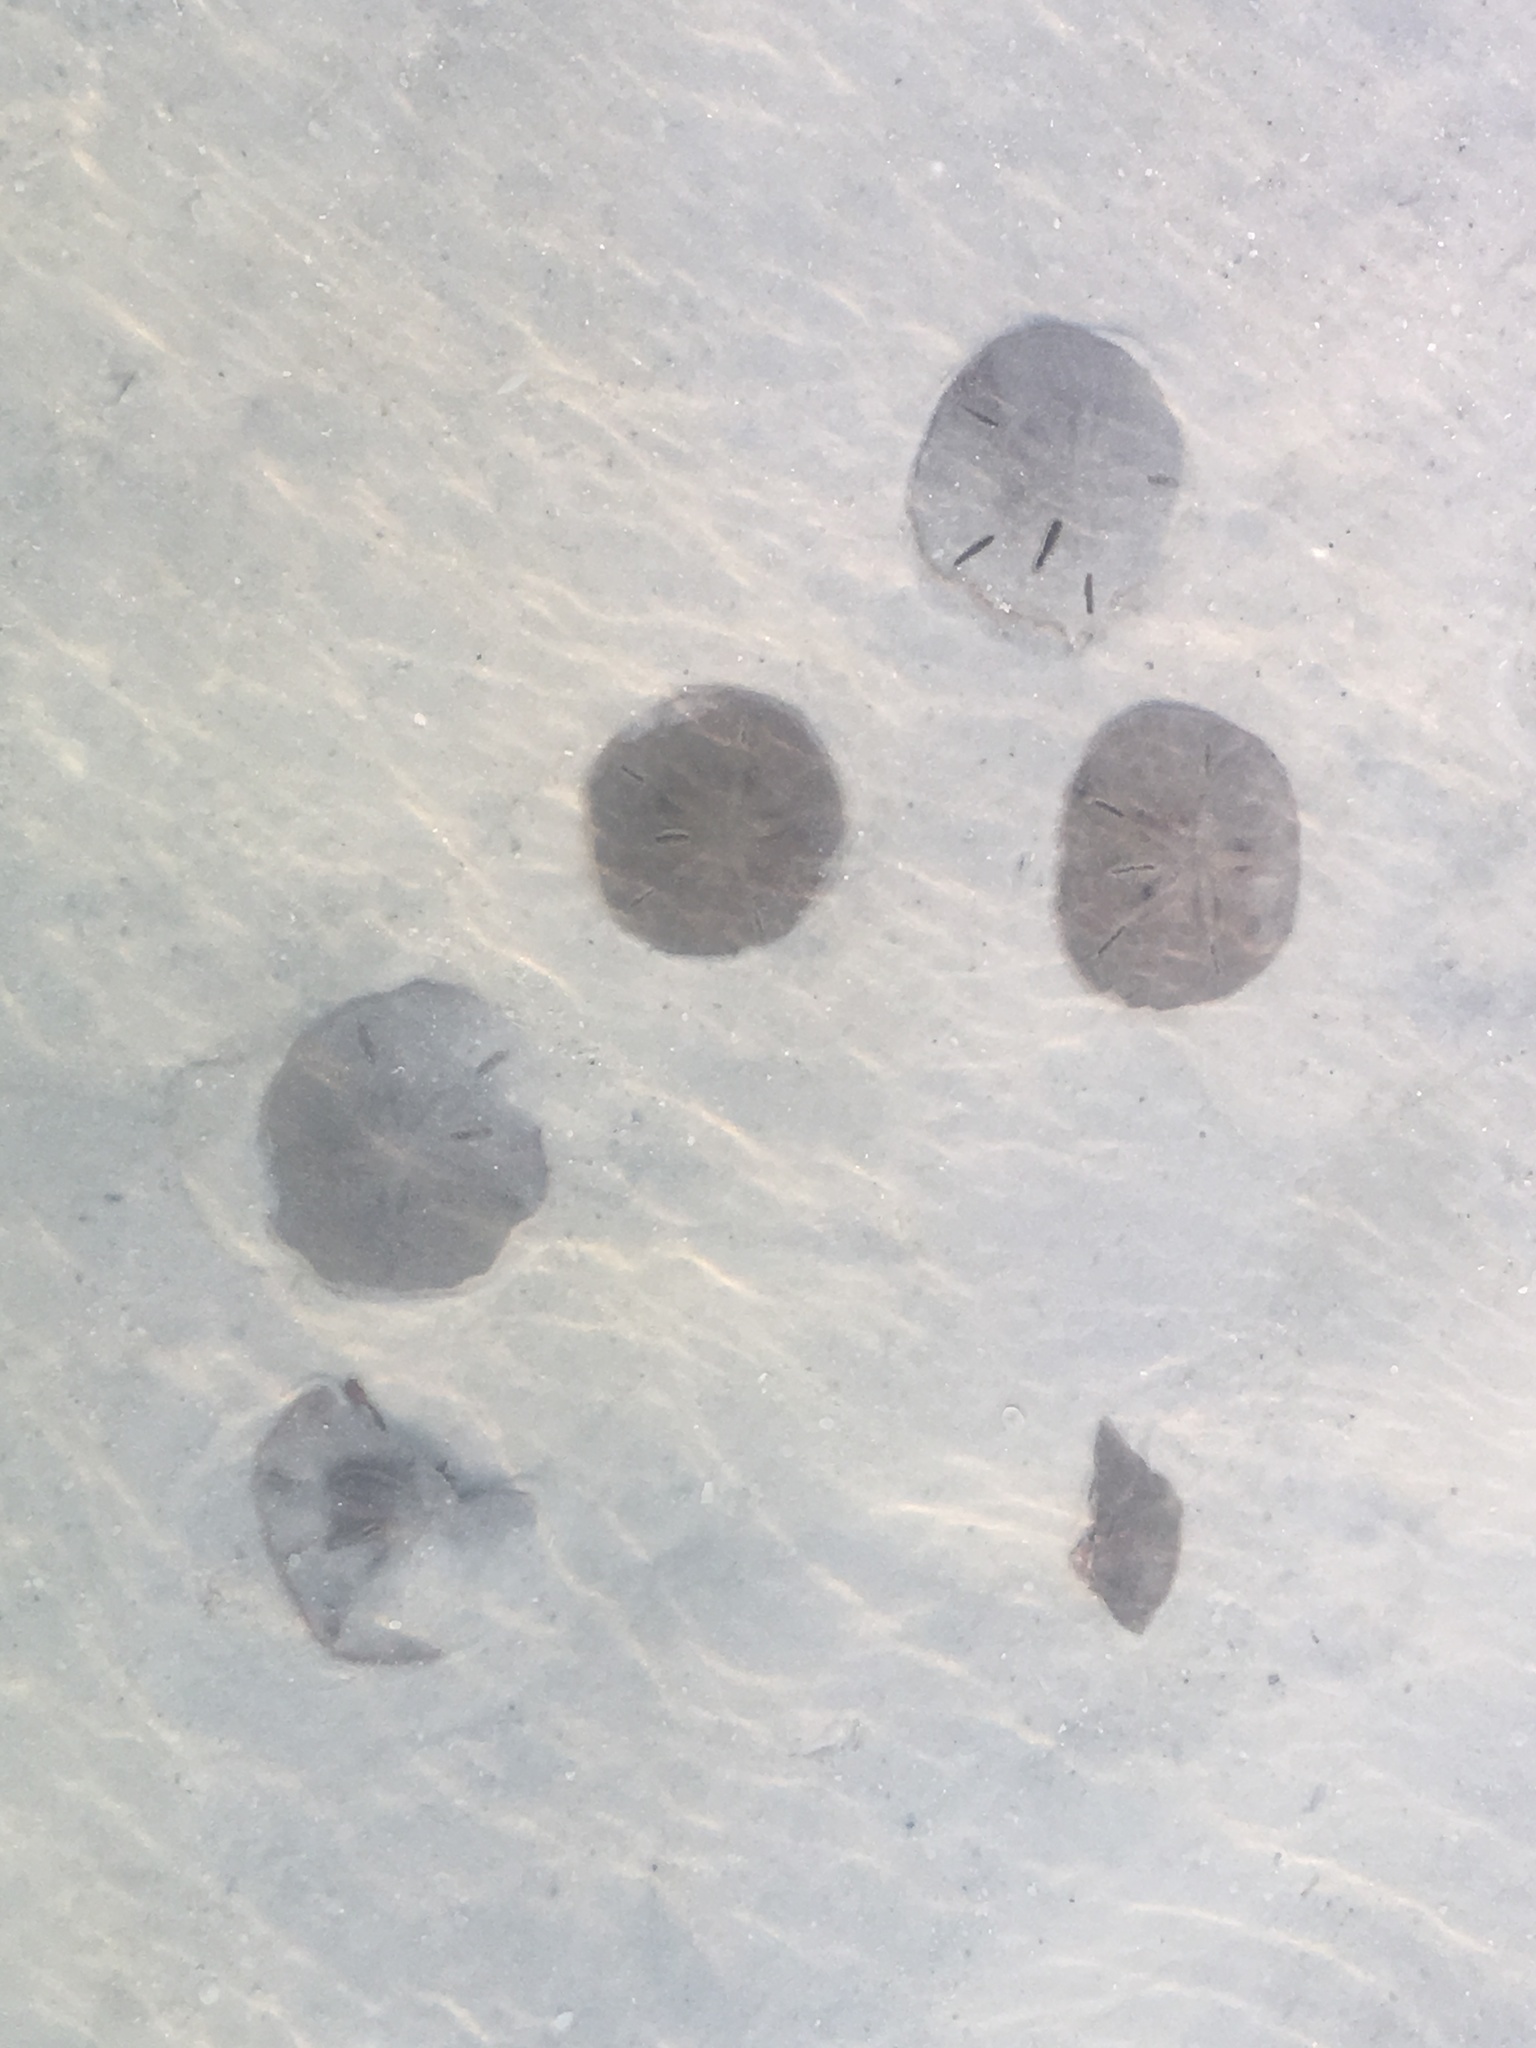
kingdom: Animalia
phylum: Echinodermata
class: Echinoidea
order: Echinolampadacea
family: Mellitidae
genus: Mellita
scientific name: Mellita tenuis
